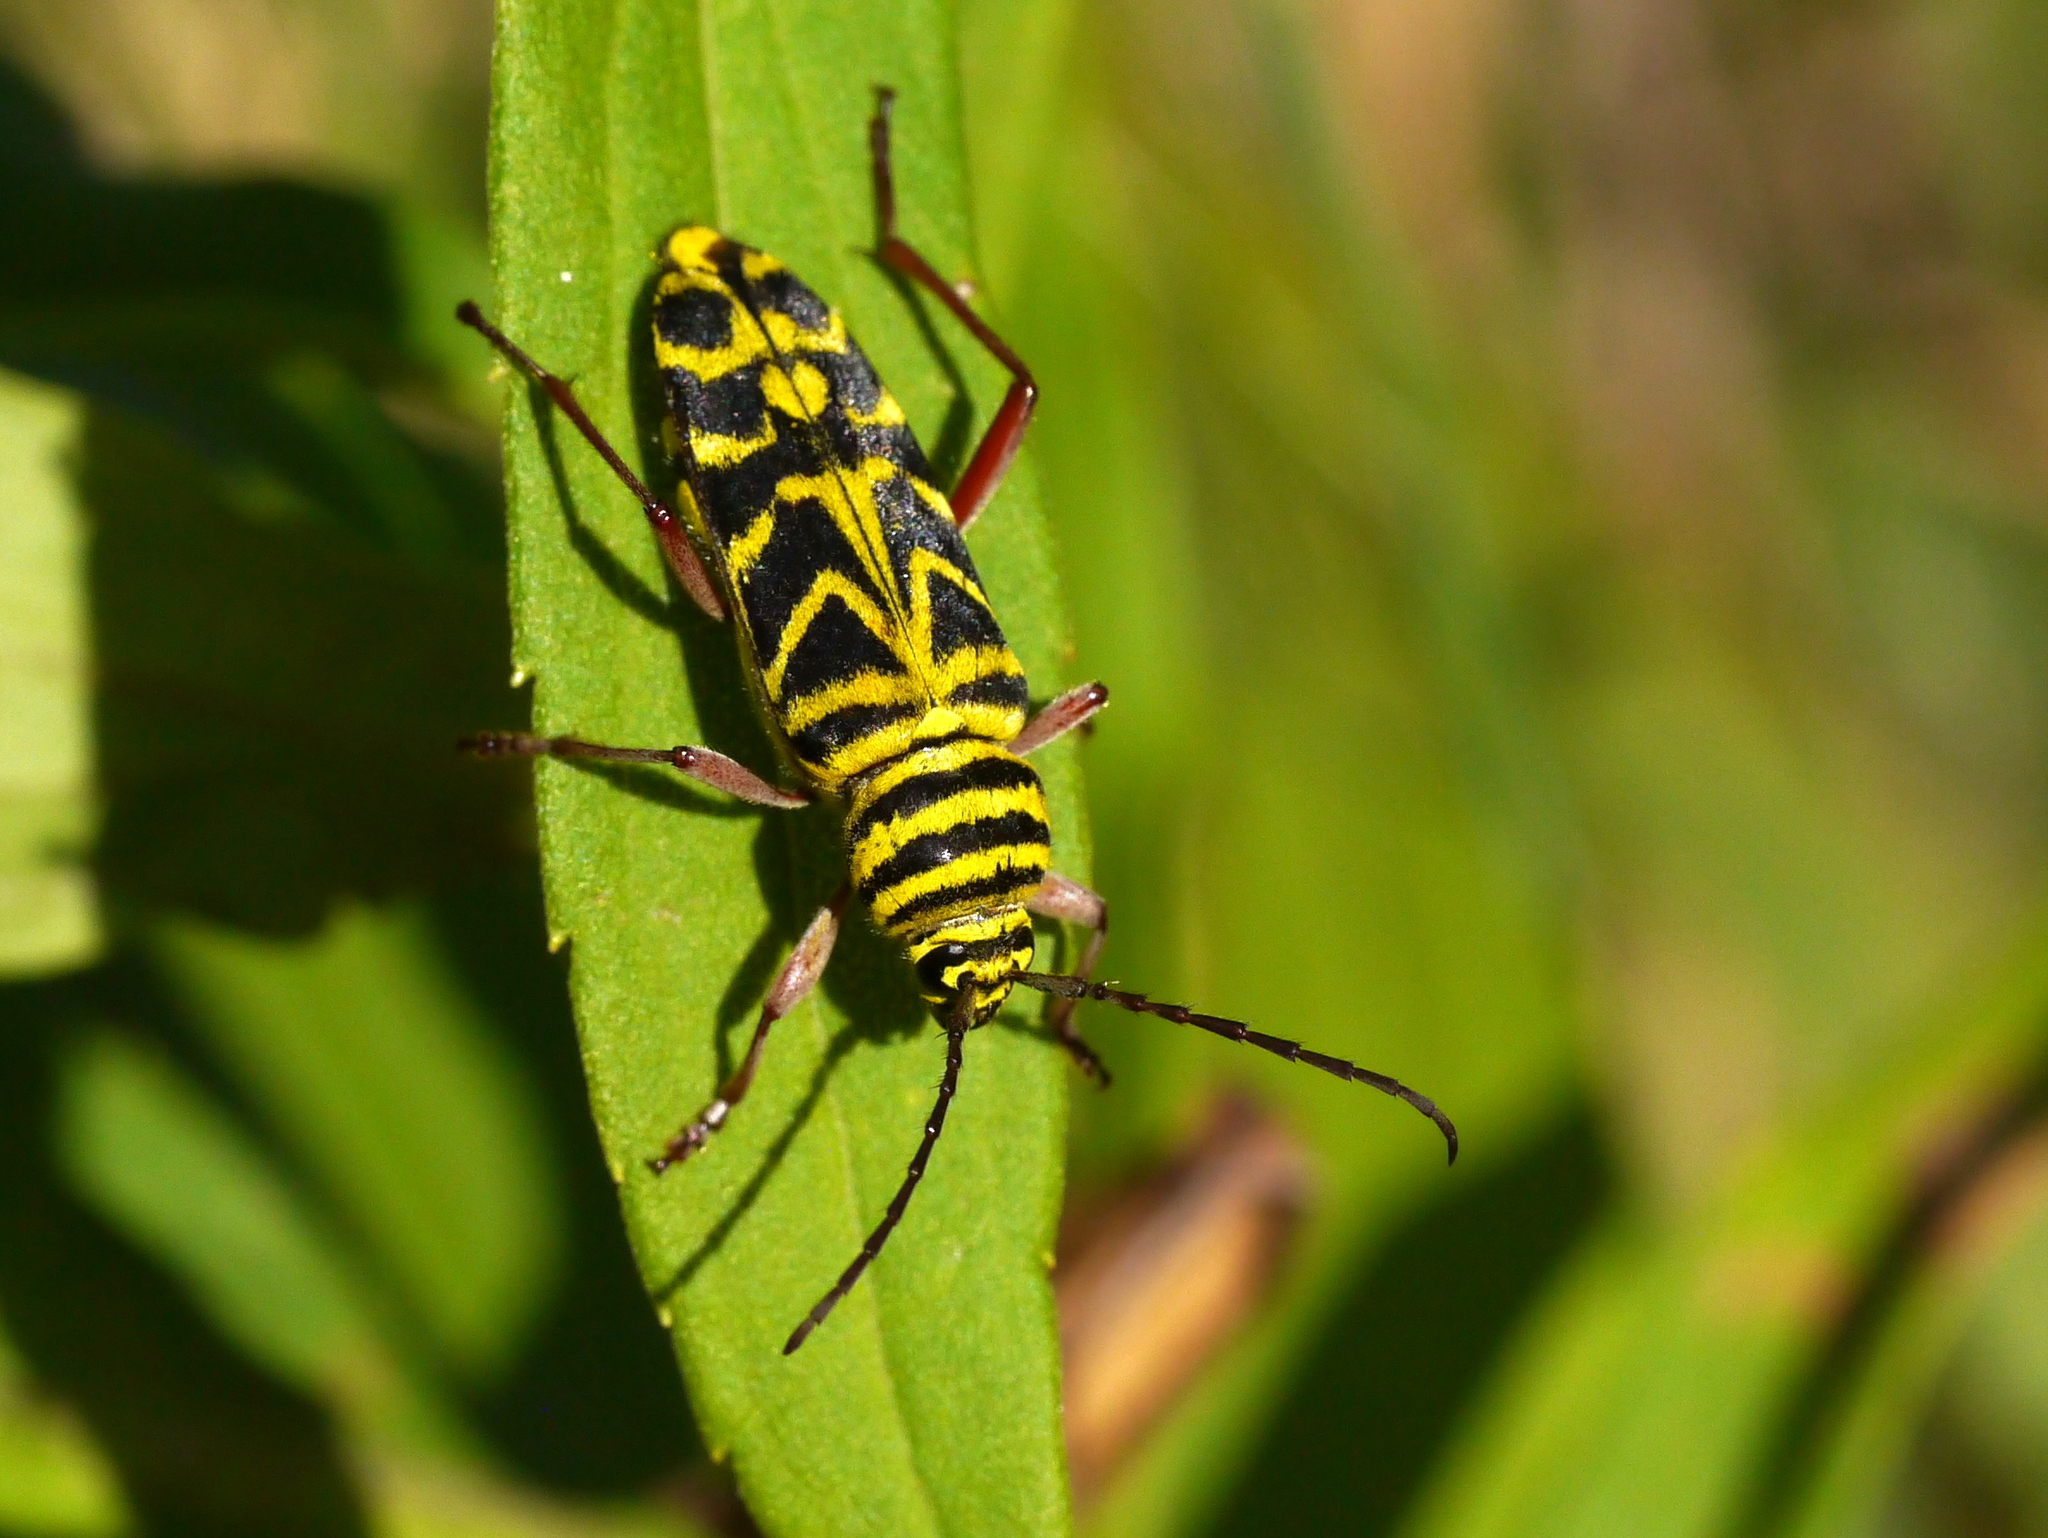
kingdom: Animalia
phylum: Arthropoda
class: Insecta
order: Coleoptera
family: Cerambycidae
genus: Megacyllene
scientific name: Megacyllene robiniae
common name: Locust borer
